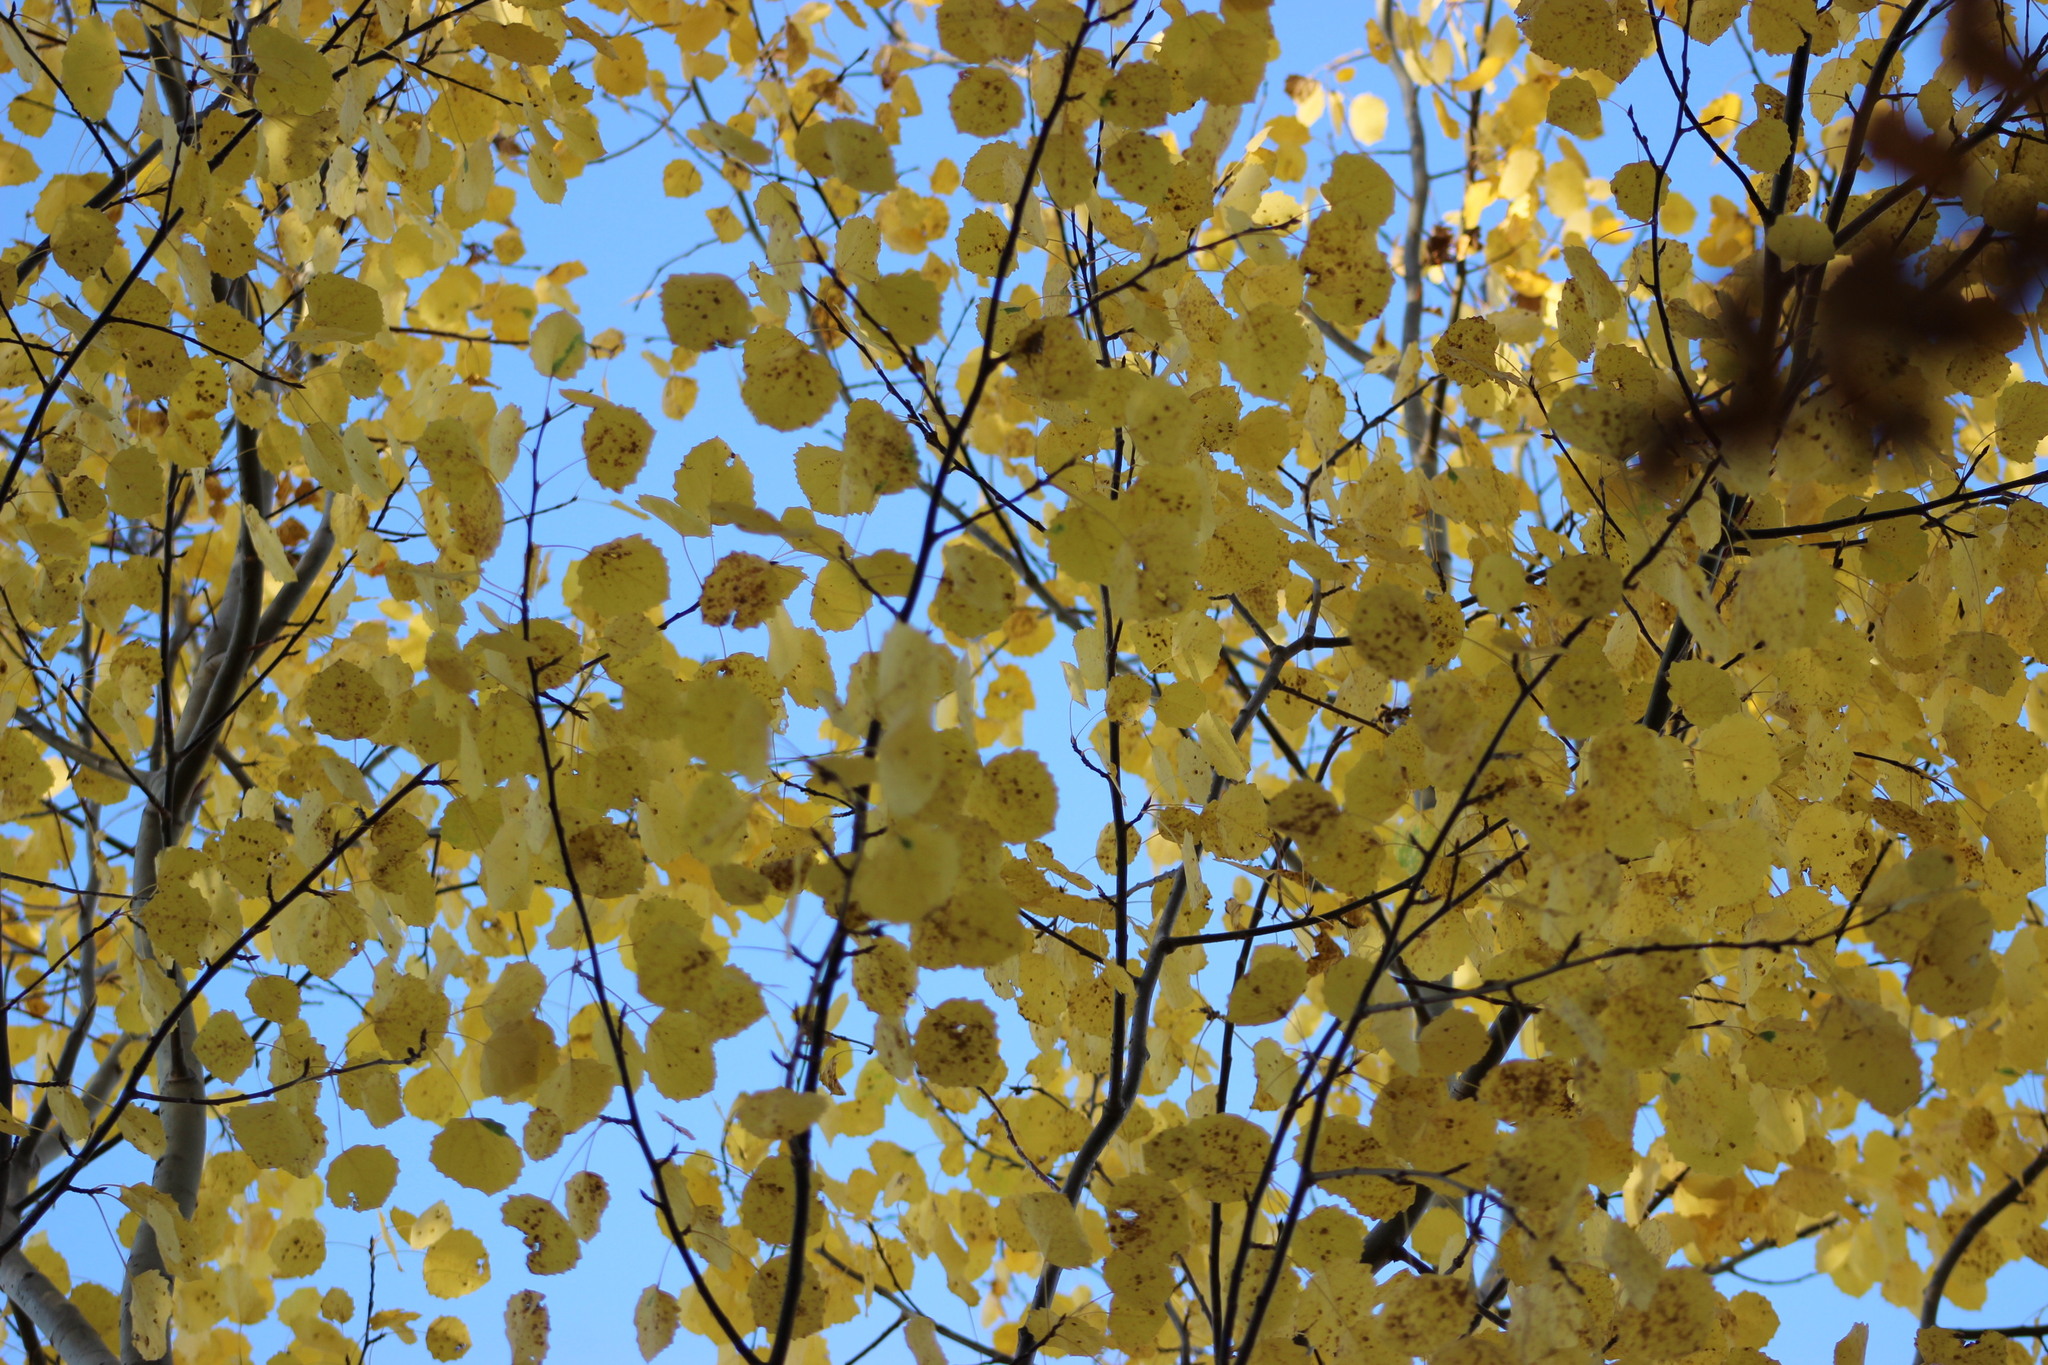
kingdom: Plantae
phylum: Tracheophyta
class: Magnoliopsida
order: Malpighiales
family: Salicaceae
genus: Populus
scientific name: Populus tremula
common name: European aspen
